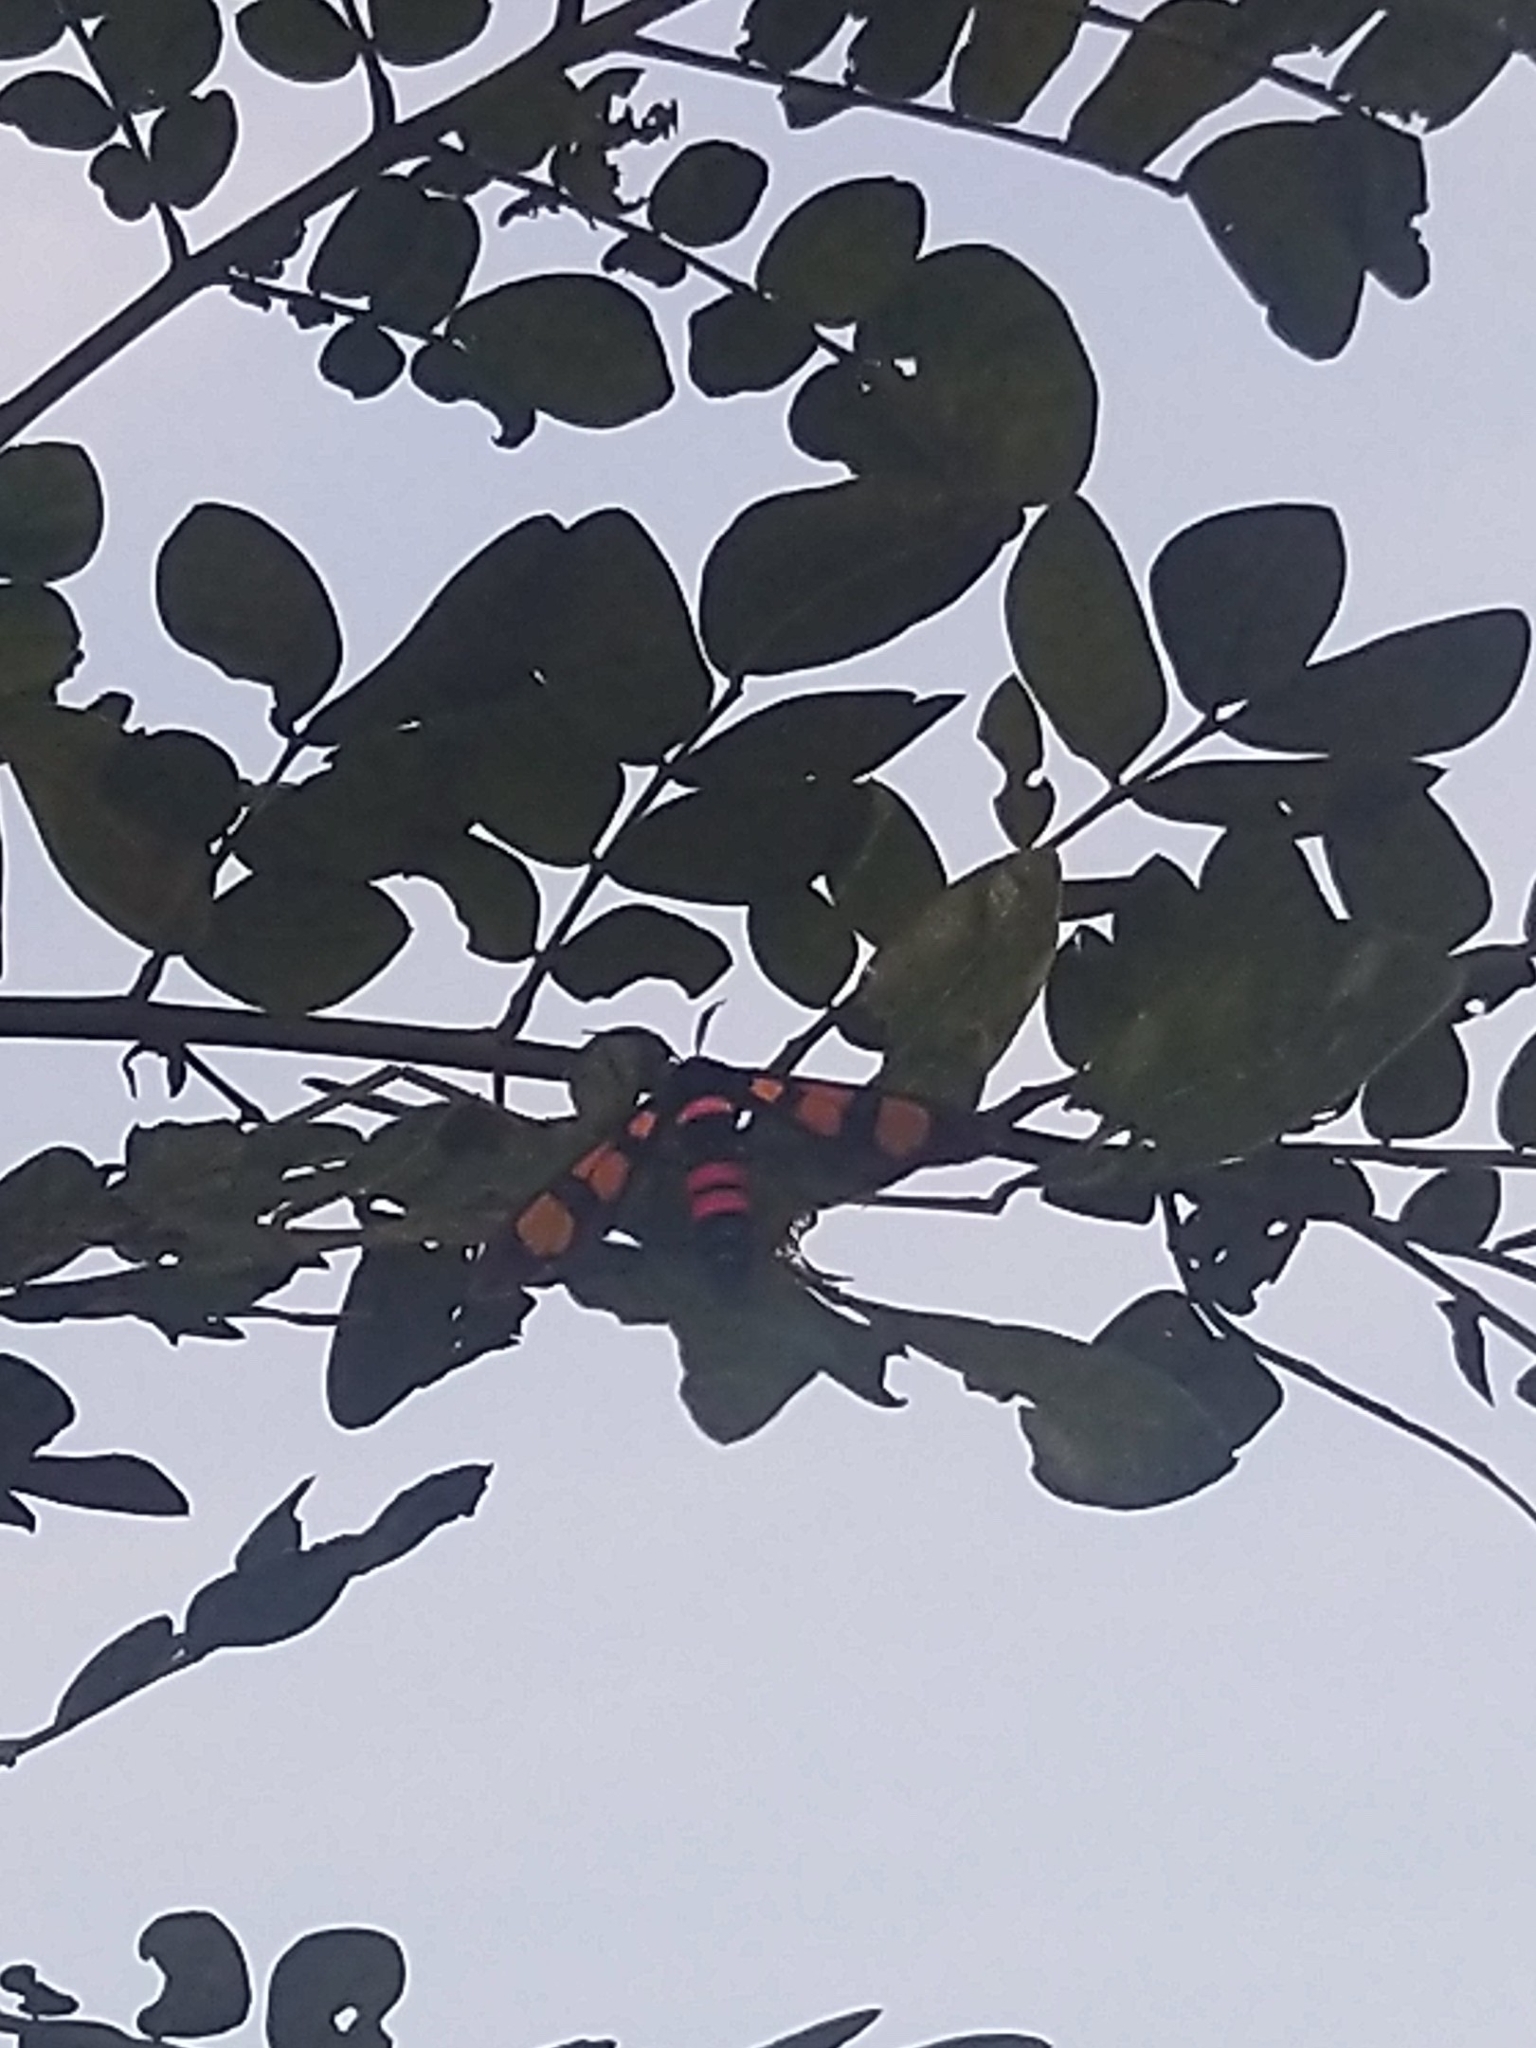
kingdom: Animalia
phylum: Arthropoda
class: Insecta
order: Lepidoptera
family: Erebidae
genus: Euchromia
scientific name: Euchromia polymena
